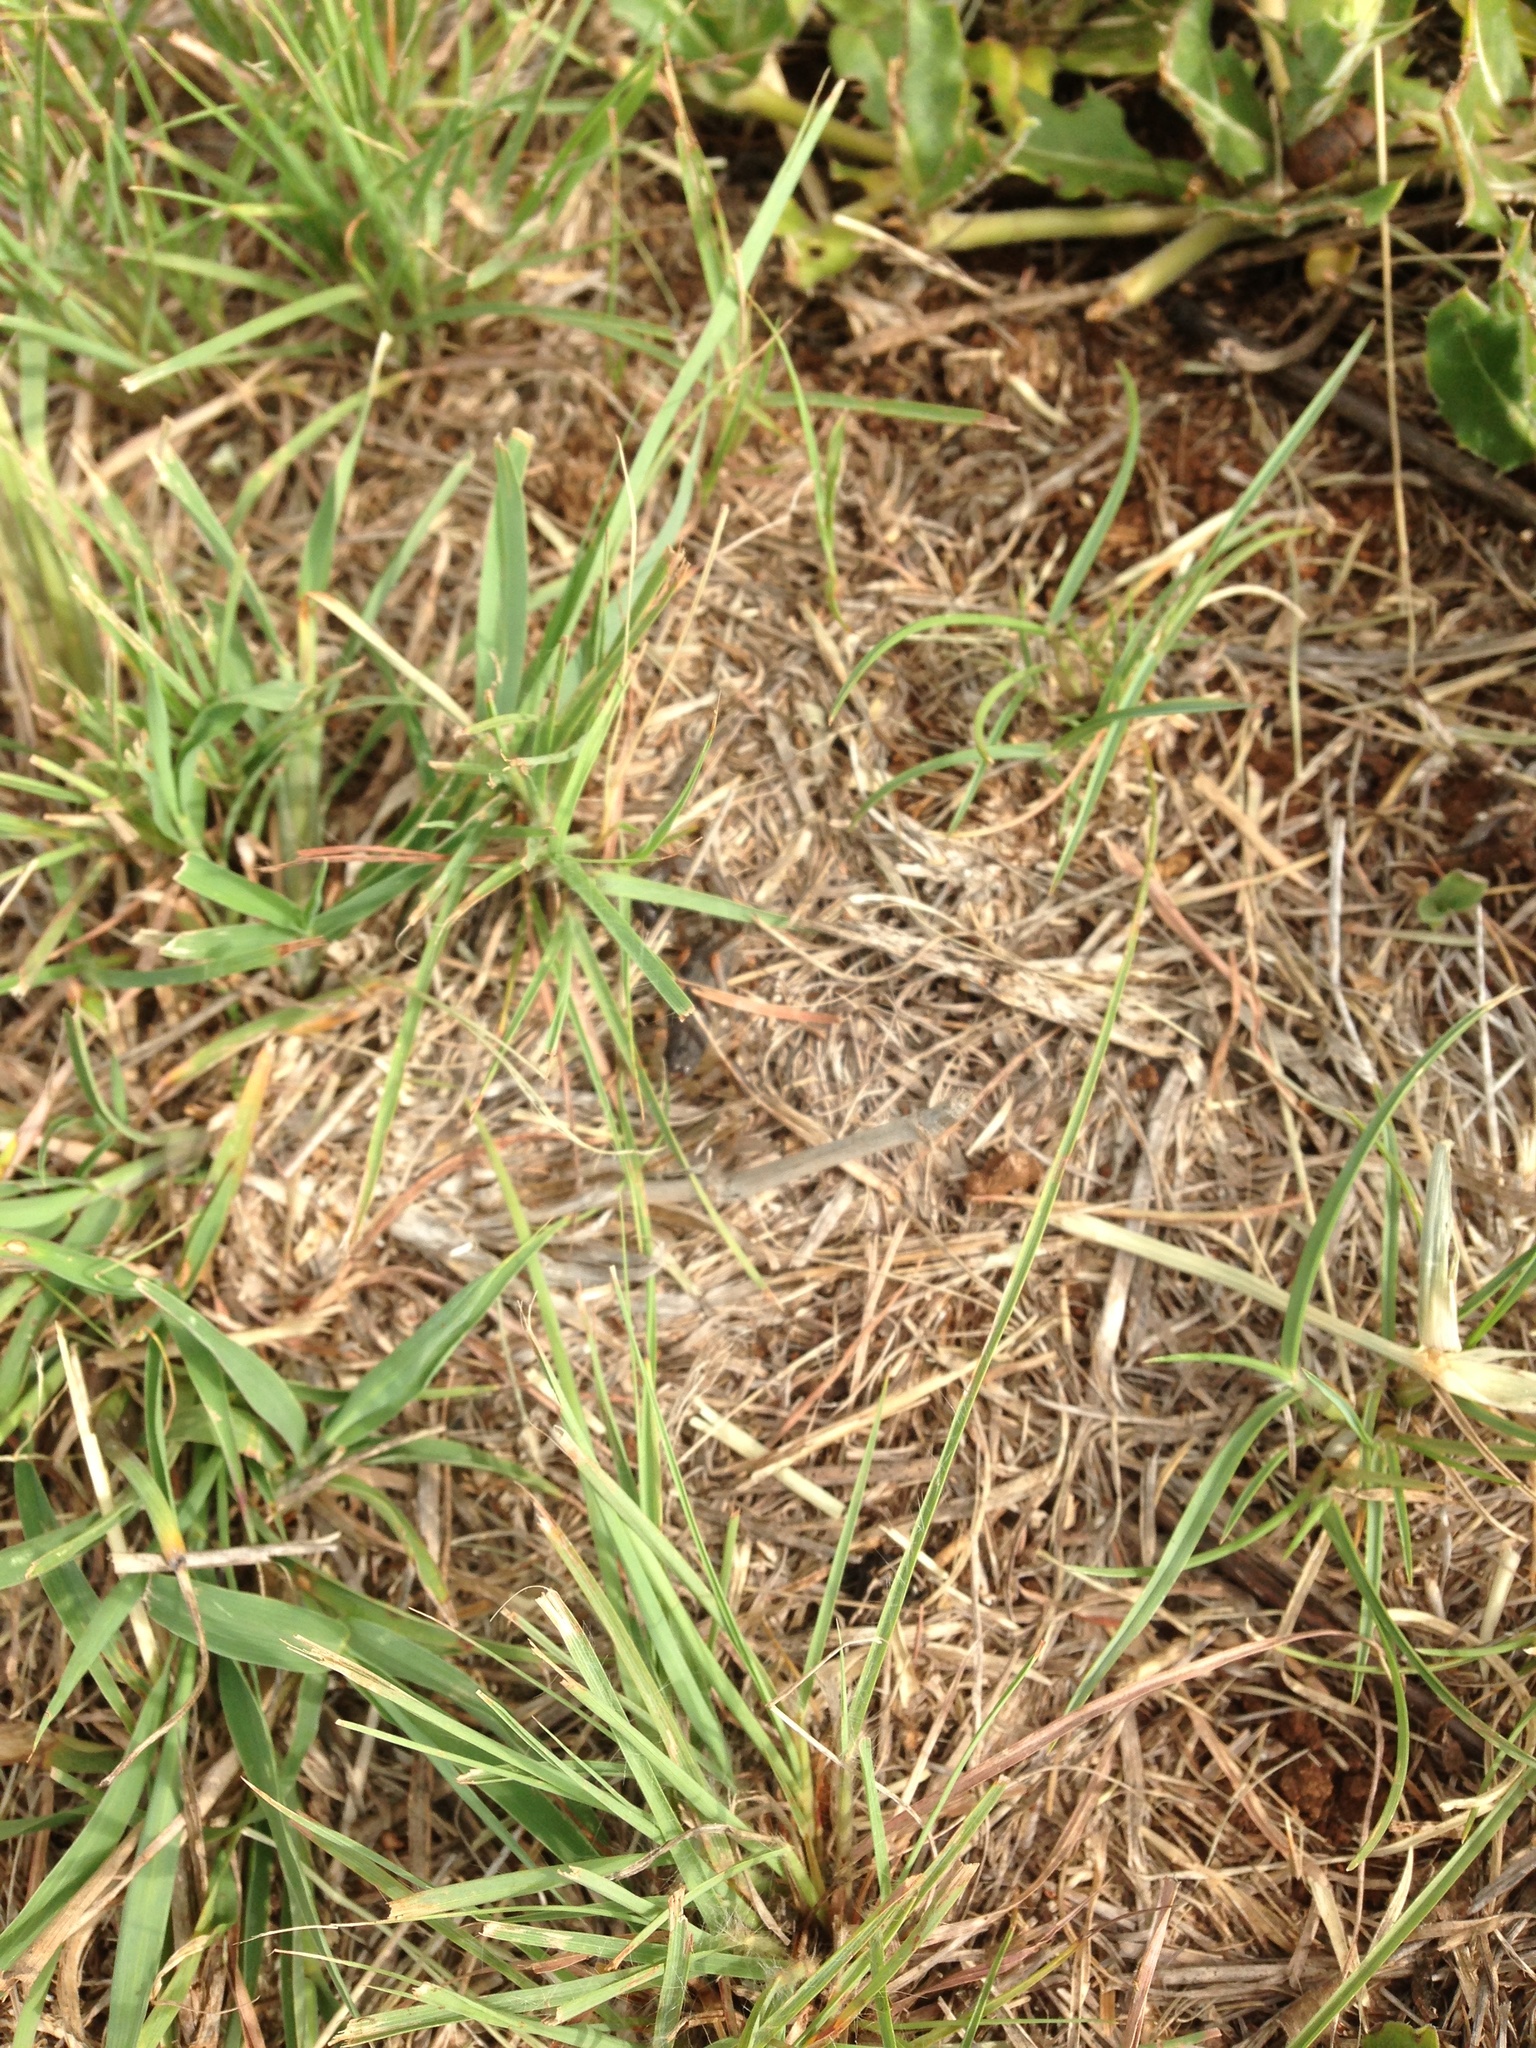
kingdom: Animalia
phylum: Arthropoda
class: Arachnida
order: Scorpiones
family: Buthidae
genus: Uroplectes
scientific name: Uroplectes triangulifer
